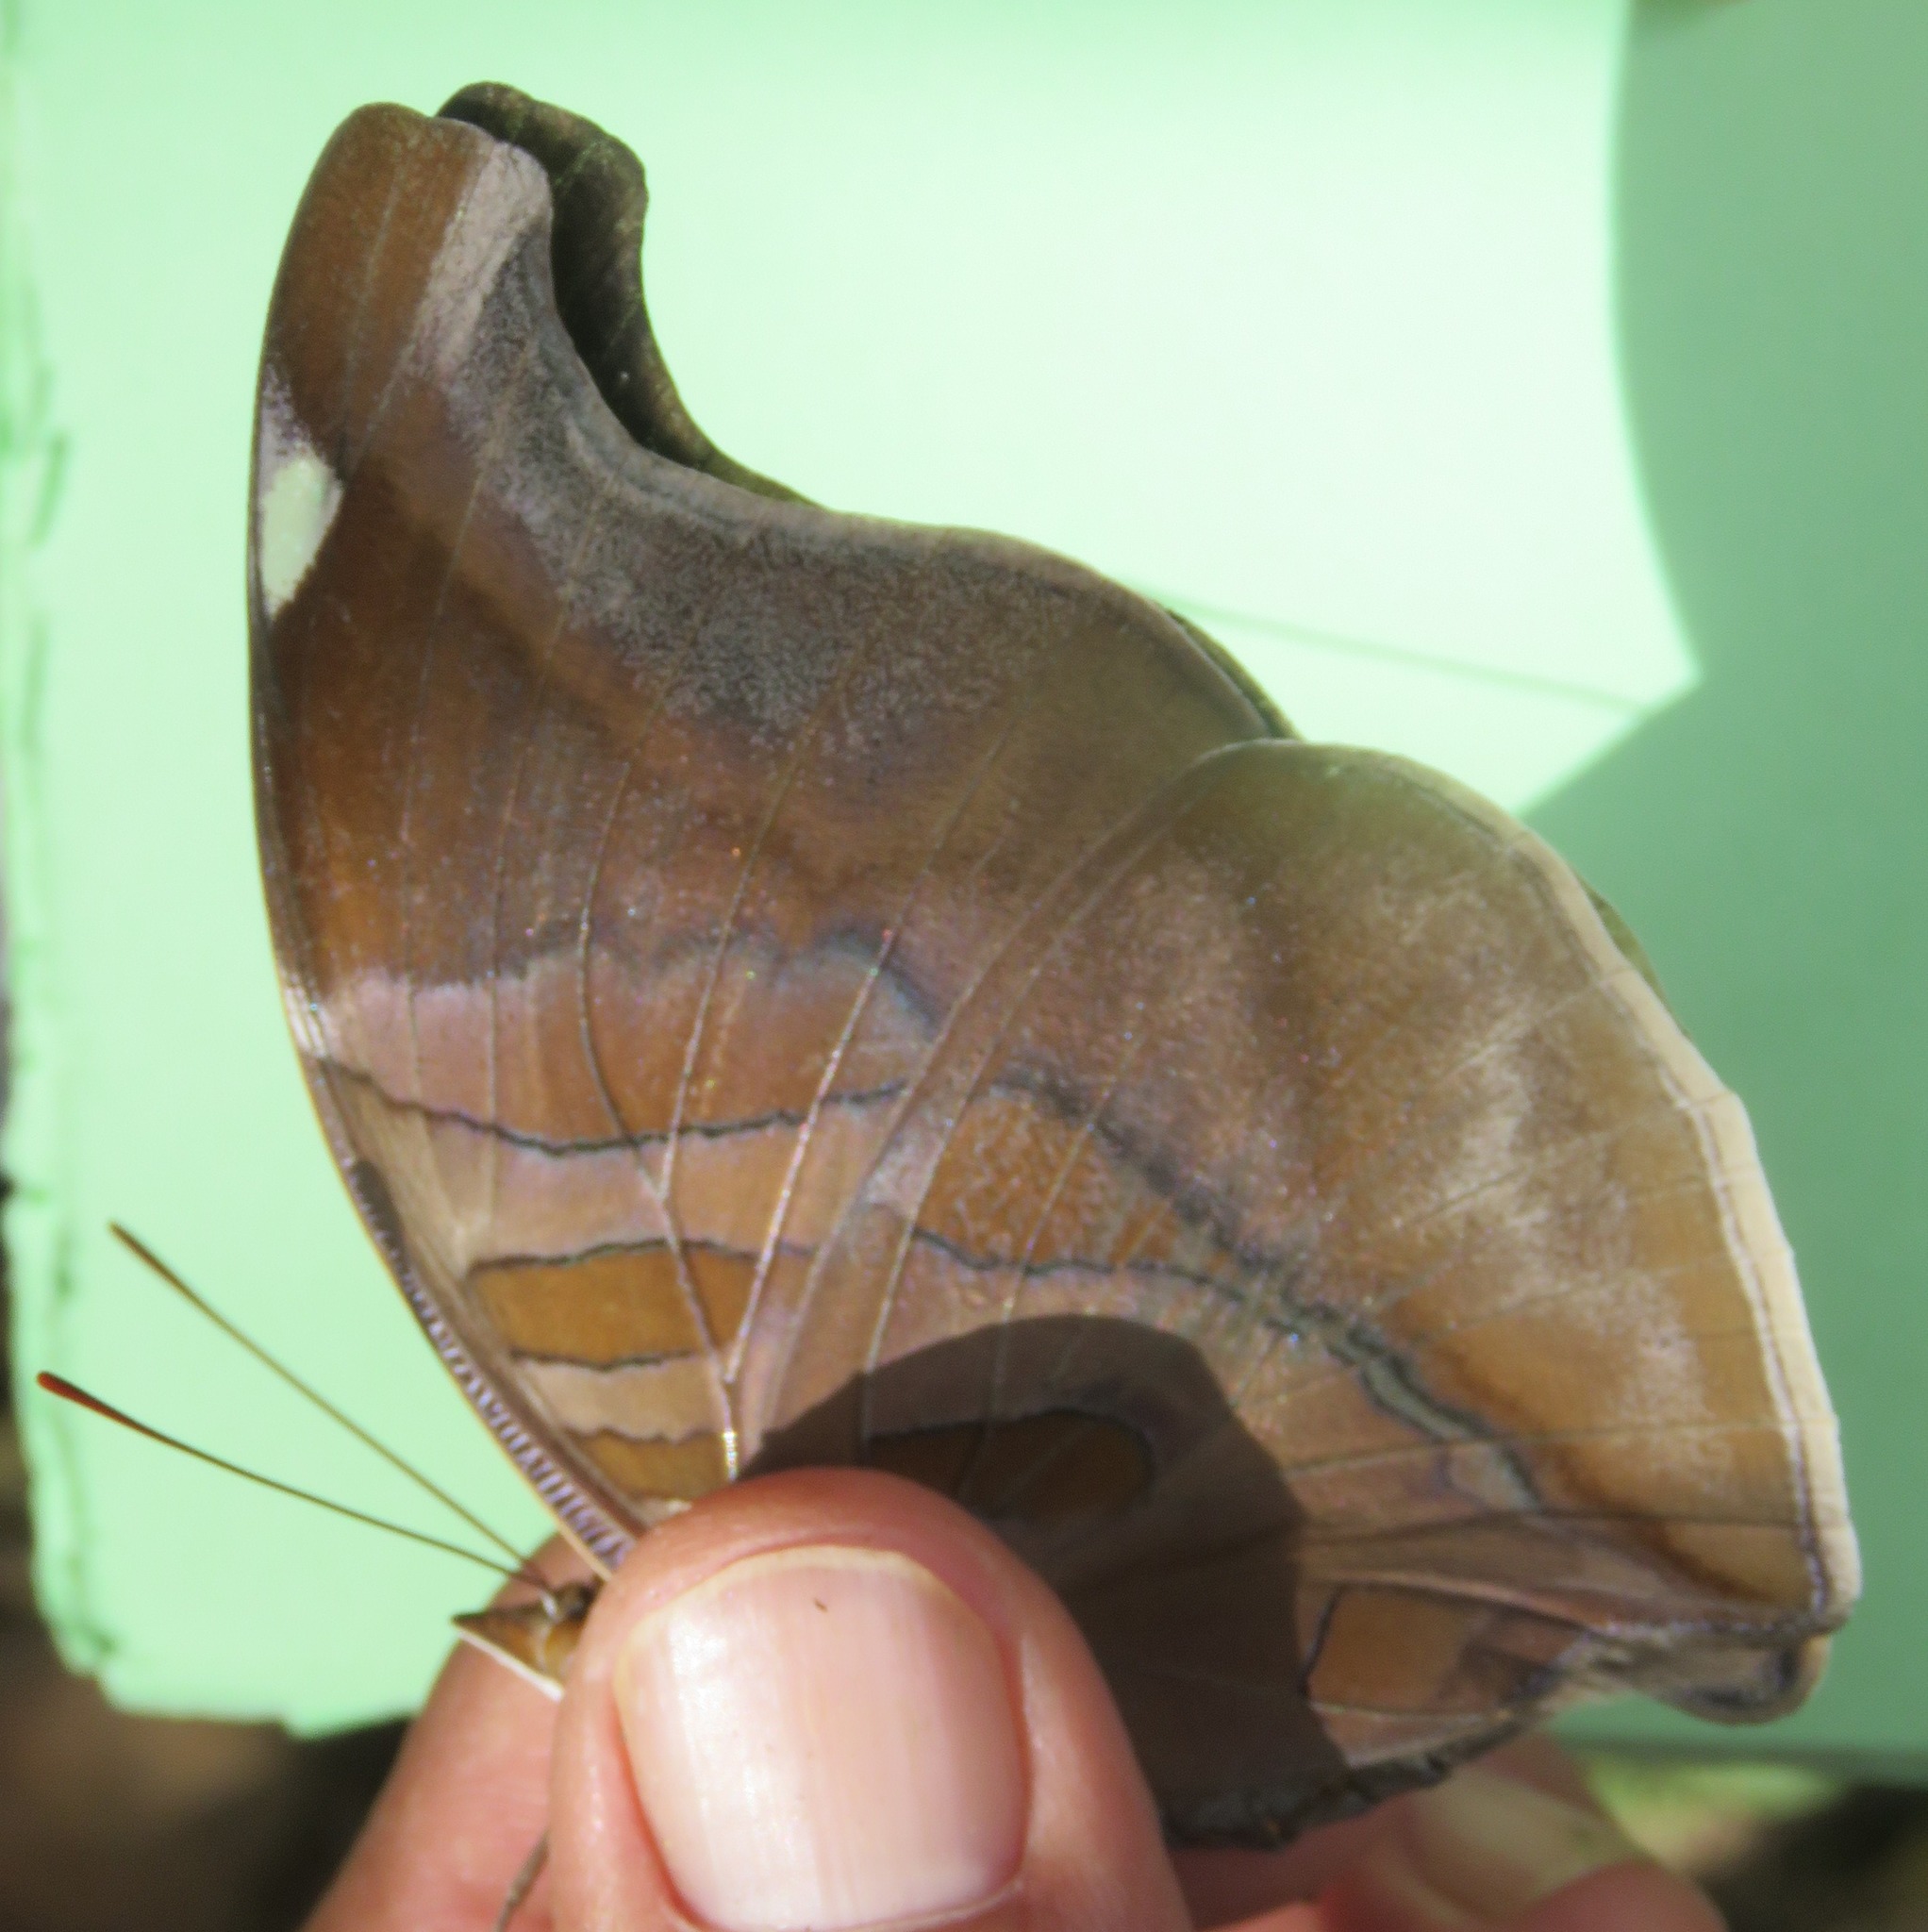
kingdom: Animalia
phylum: Arthropoda
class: Insecta
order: Lepidoptera
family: Nymphalidae
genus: Historis
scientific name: Historis odius
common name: Orion cecropian
